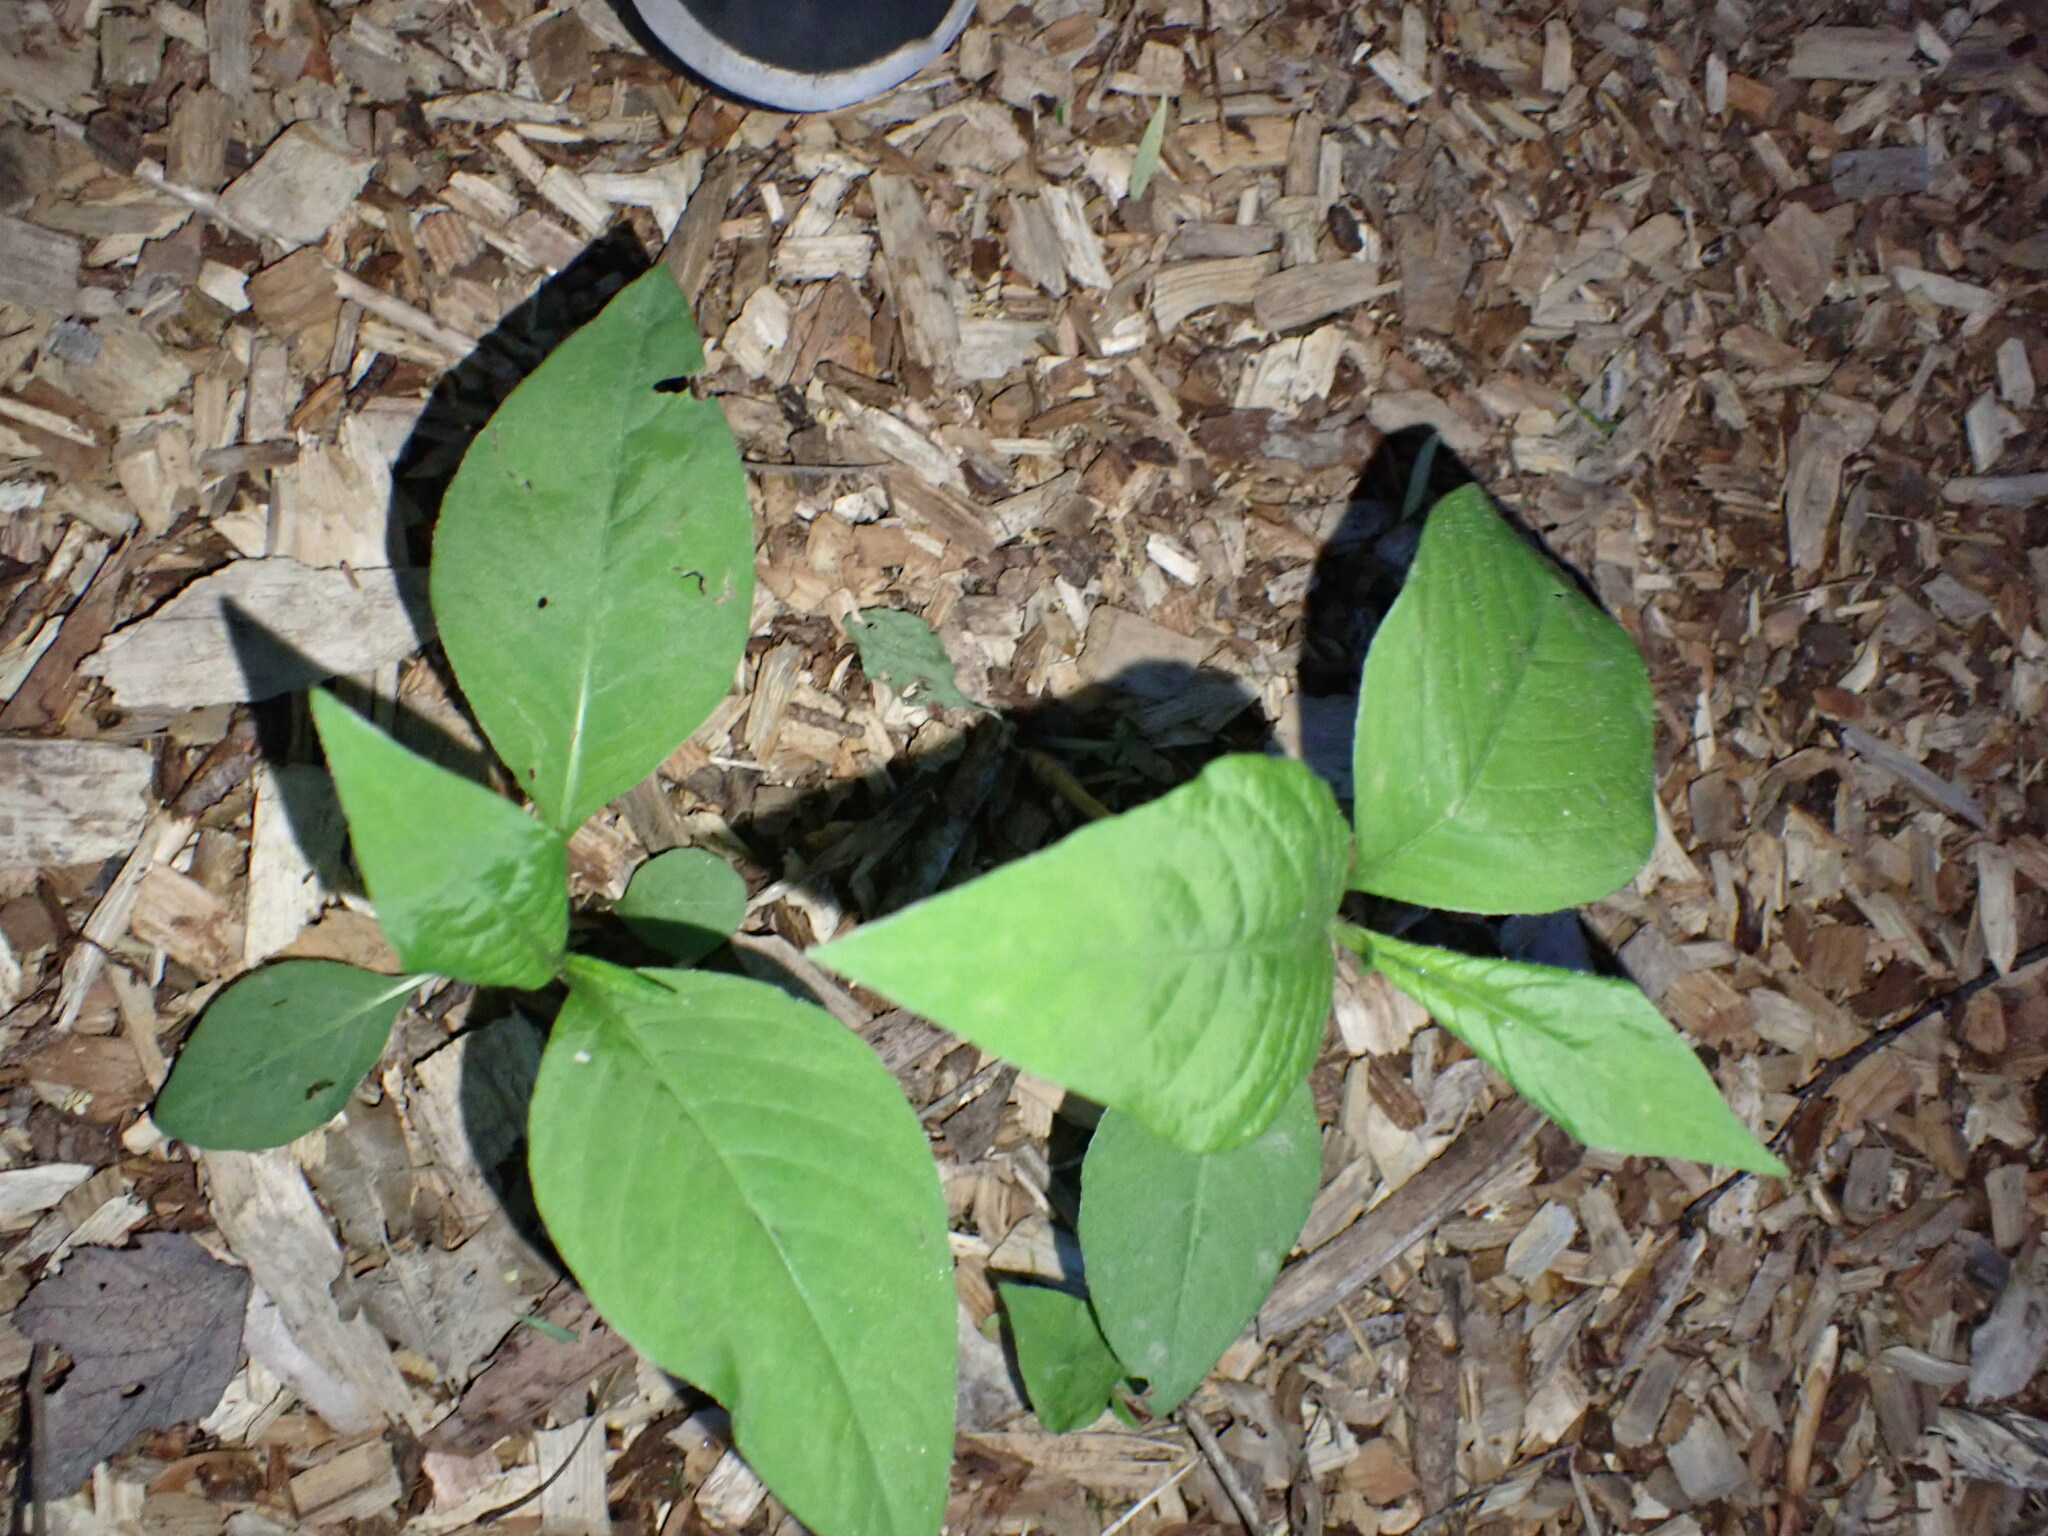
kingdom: Plantae
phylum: Tracheophyta
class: Magnoliopsida
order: Caryophyllales
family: Polygonaceae
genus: Persicaria
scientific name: Persicaria virginiana
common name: Jumpseed
